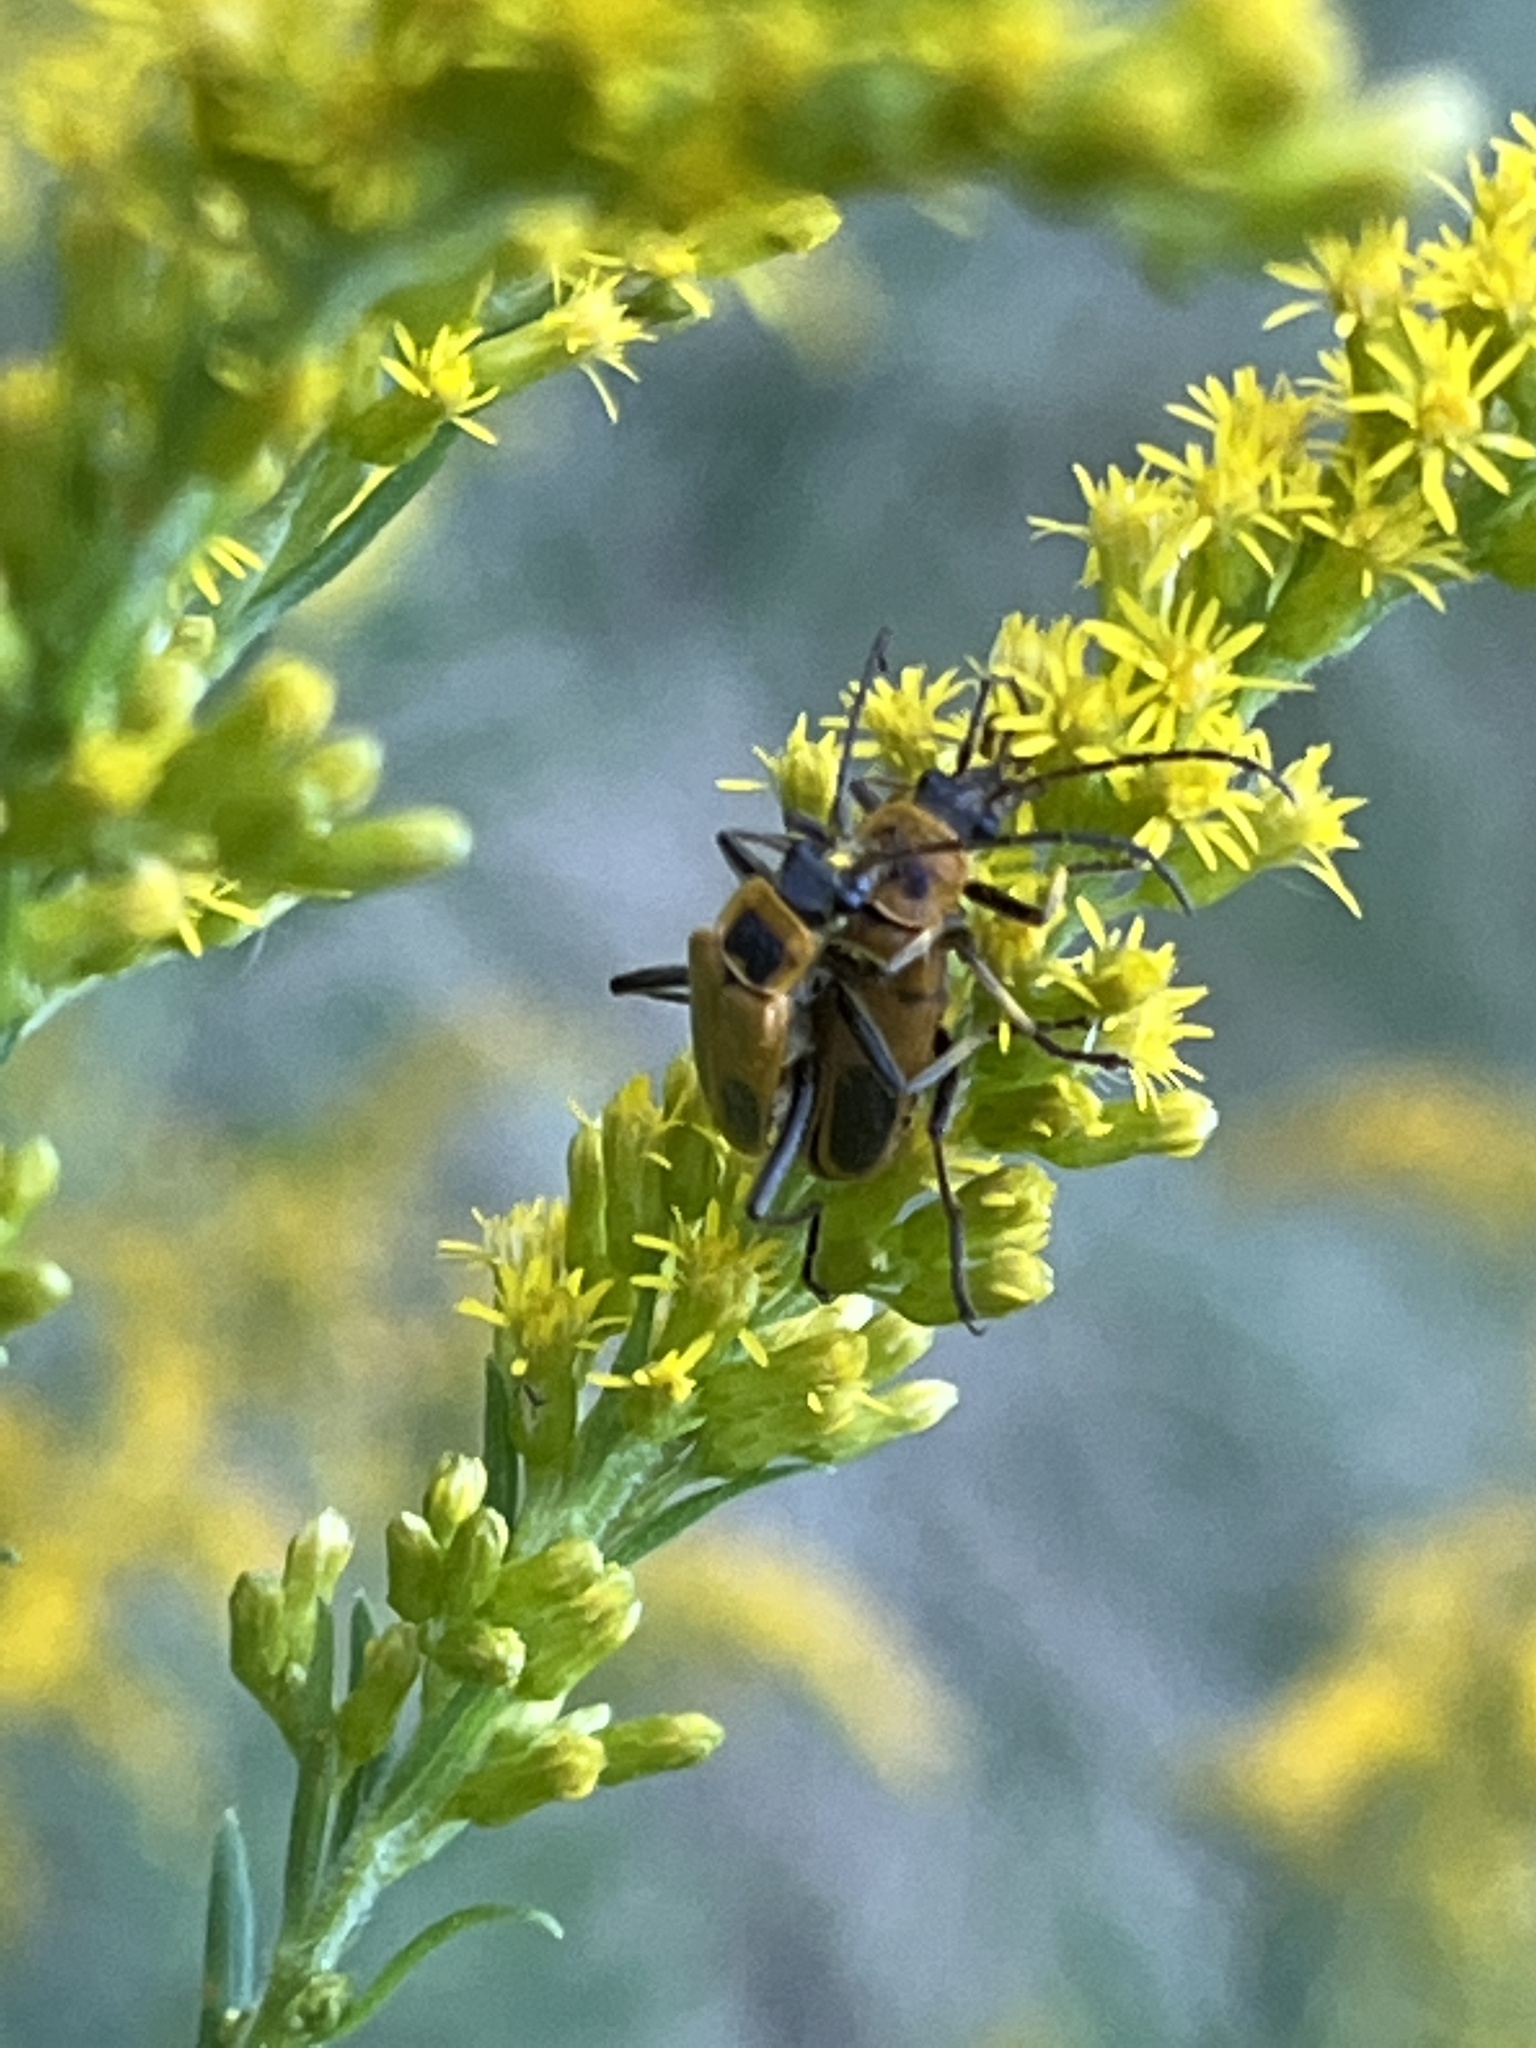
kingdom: Animalia
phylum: Arthropoda
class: Insecta
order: Coleoptera
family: Cantharidae
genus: Chauliognathus
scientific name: Chauliognathus pensylvanicus
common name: Goldenrod soldier beetle
